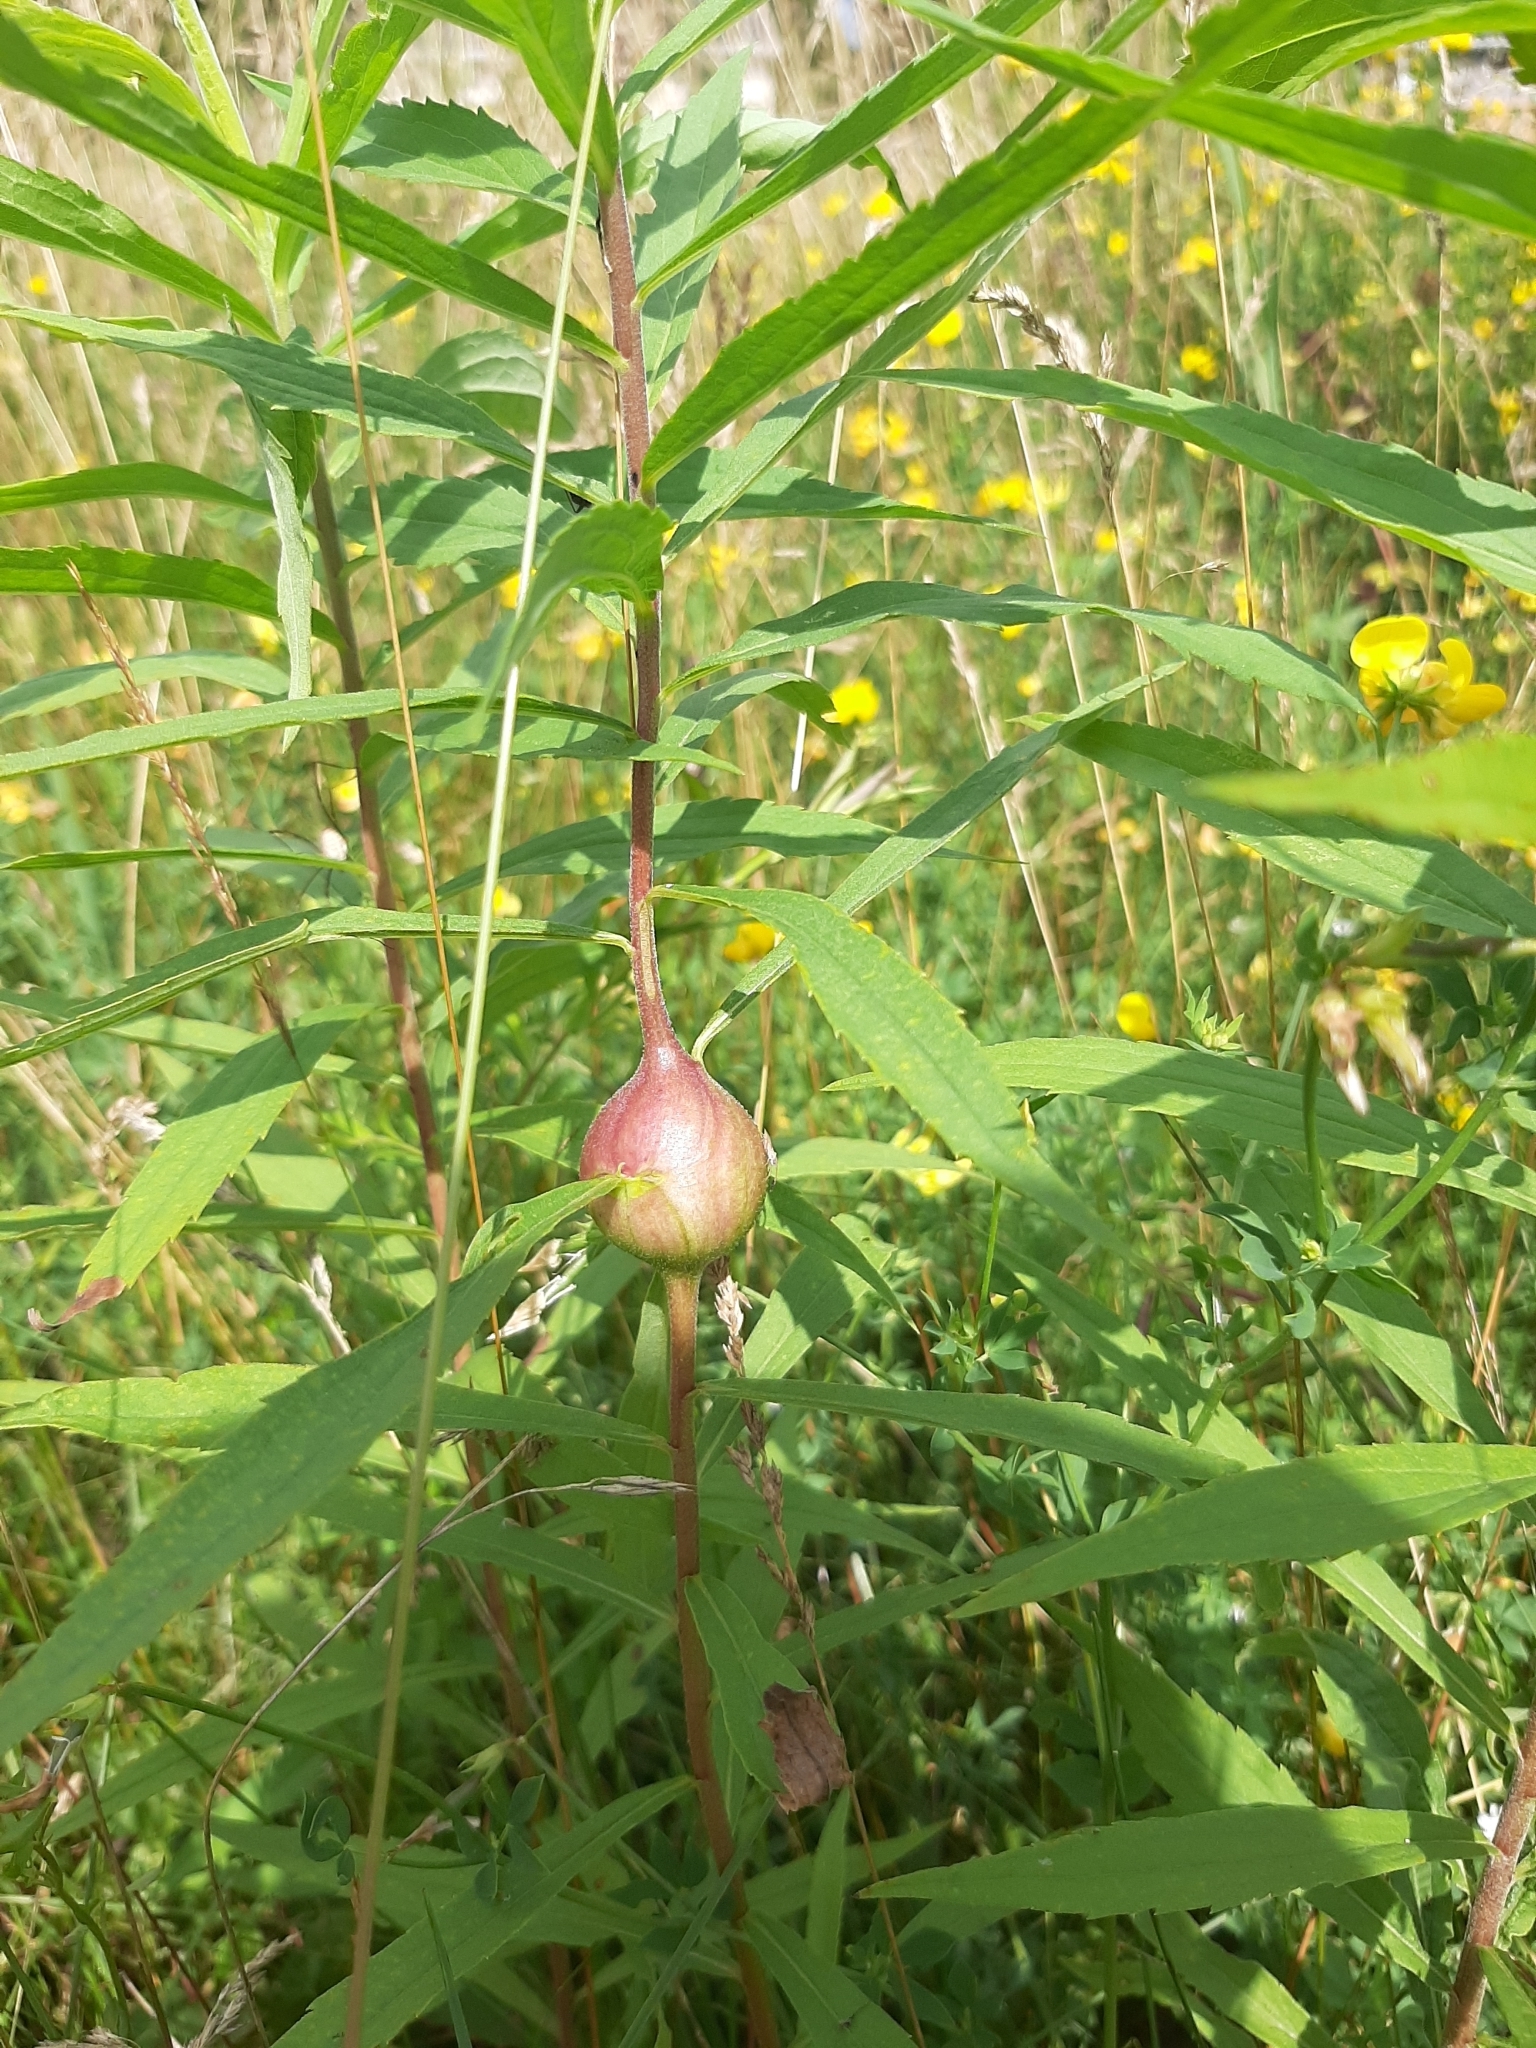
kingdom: Animalia
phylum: Arthropoda
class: Insecta
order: Diptera
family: Tephritidae
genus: Eurosta
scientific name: Eurosta solidaginis
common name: Goldenrod gall fly
